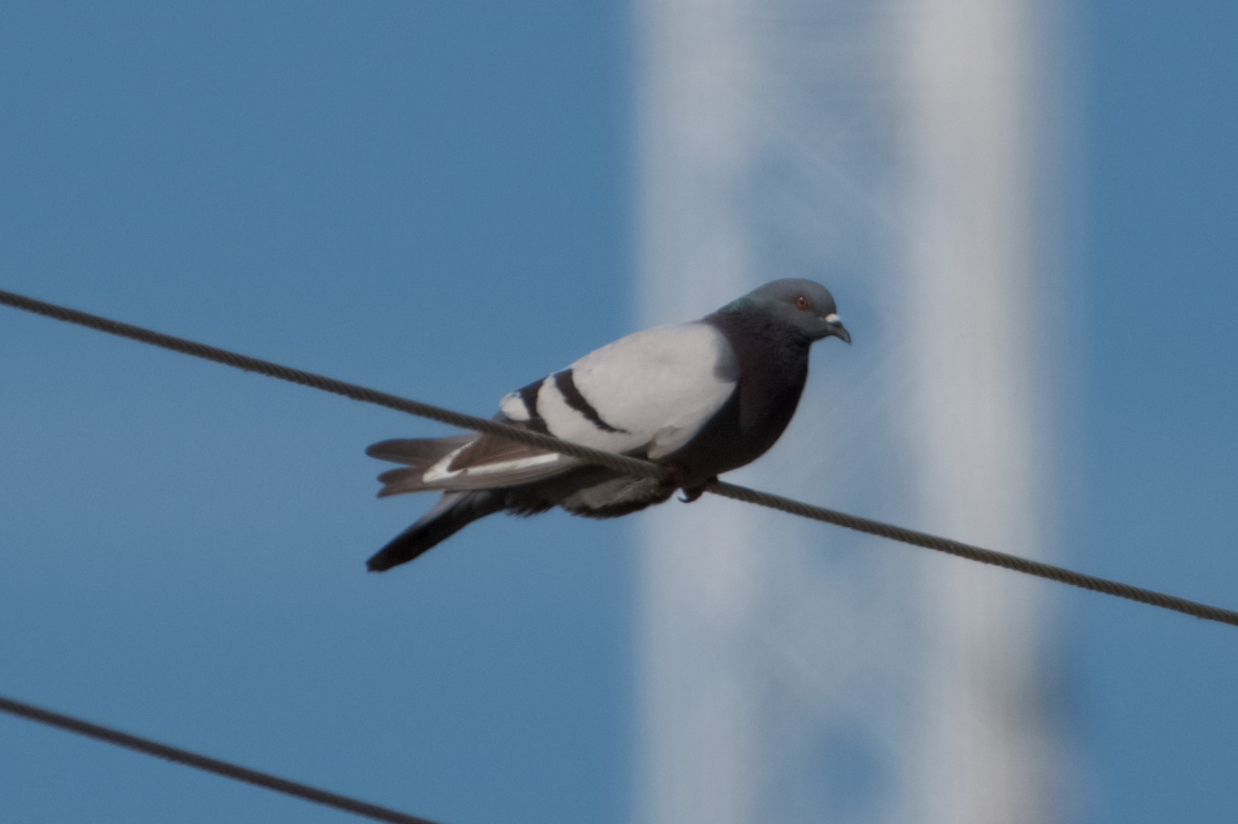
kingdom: Animalia
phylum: Chordata
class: Aves
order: Columbiformes
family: Columbidae
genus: Columba
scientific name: Columba livia
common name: Rock pigeon
